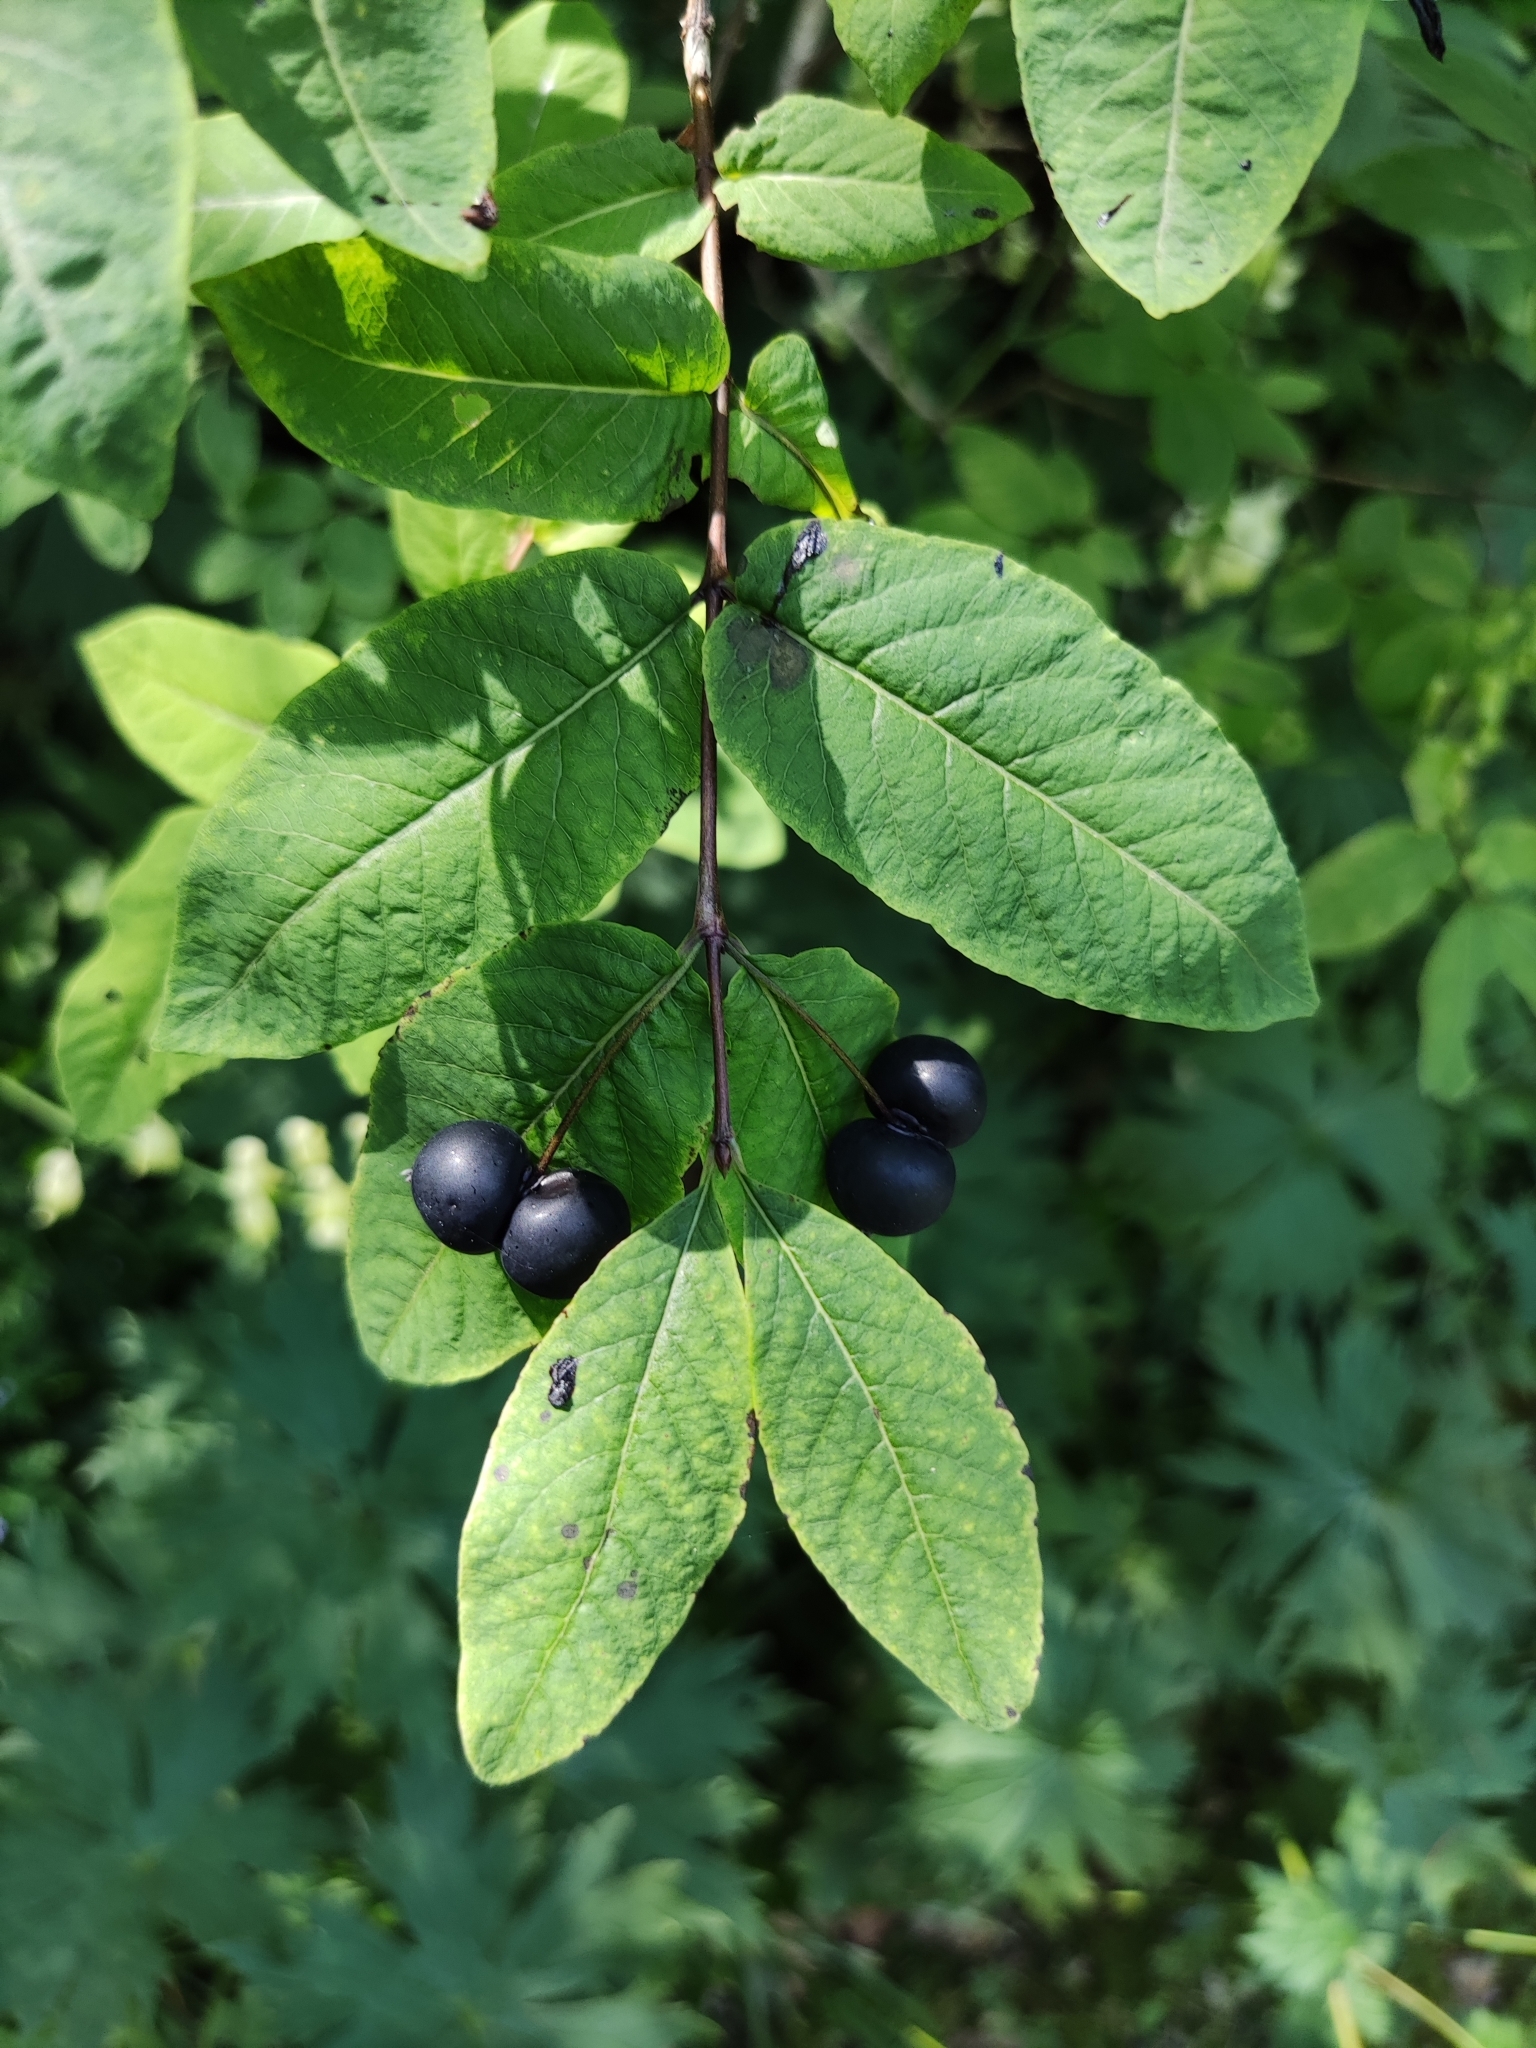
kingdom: Plantae
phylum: Tracheophyta
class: Magnoliopsida
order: Dipsacales
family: Caprifoliaceae
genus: Lonicera
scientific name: Lonicera nigra
